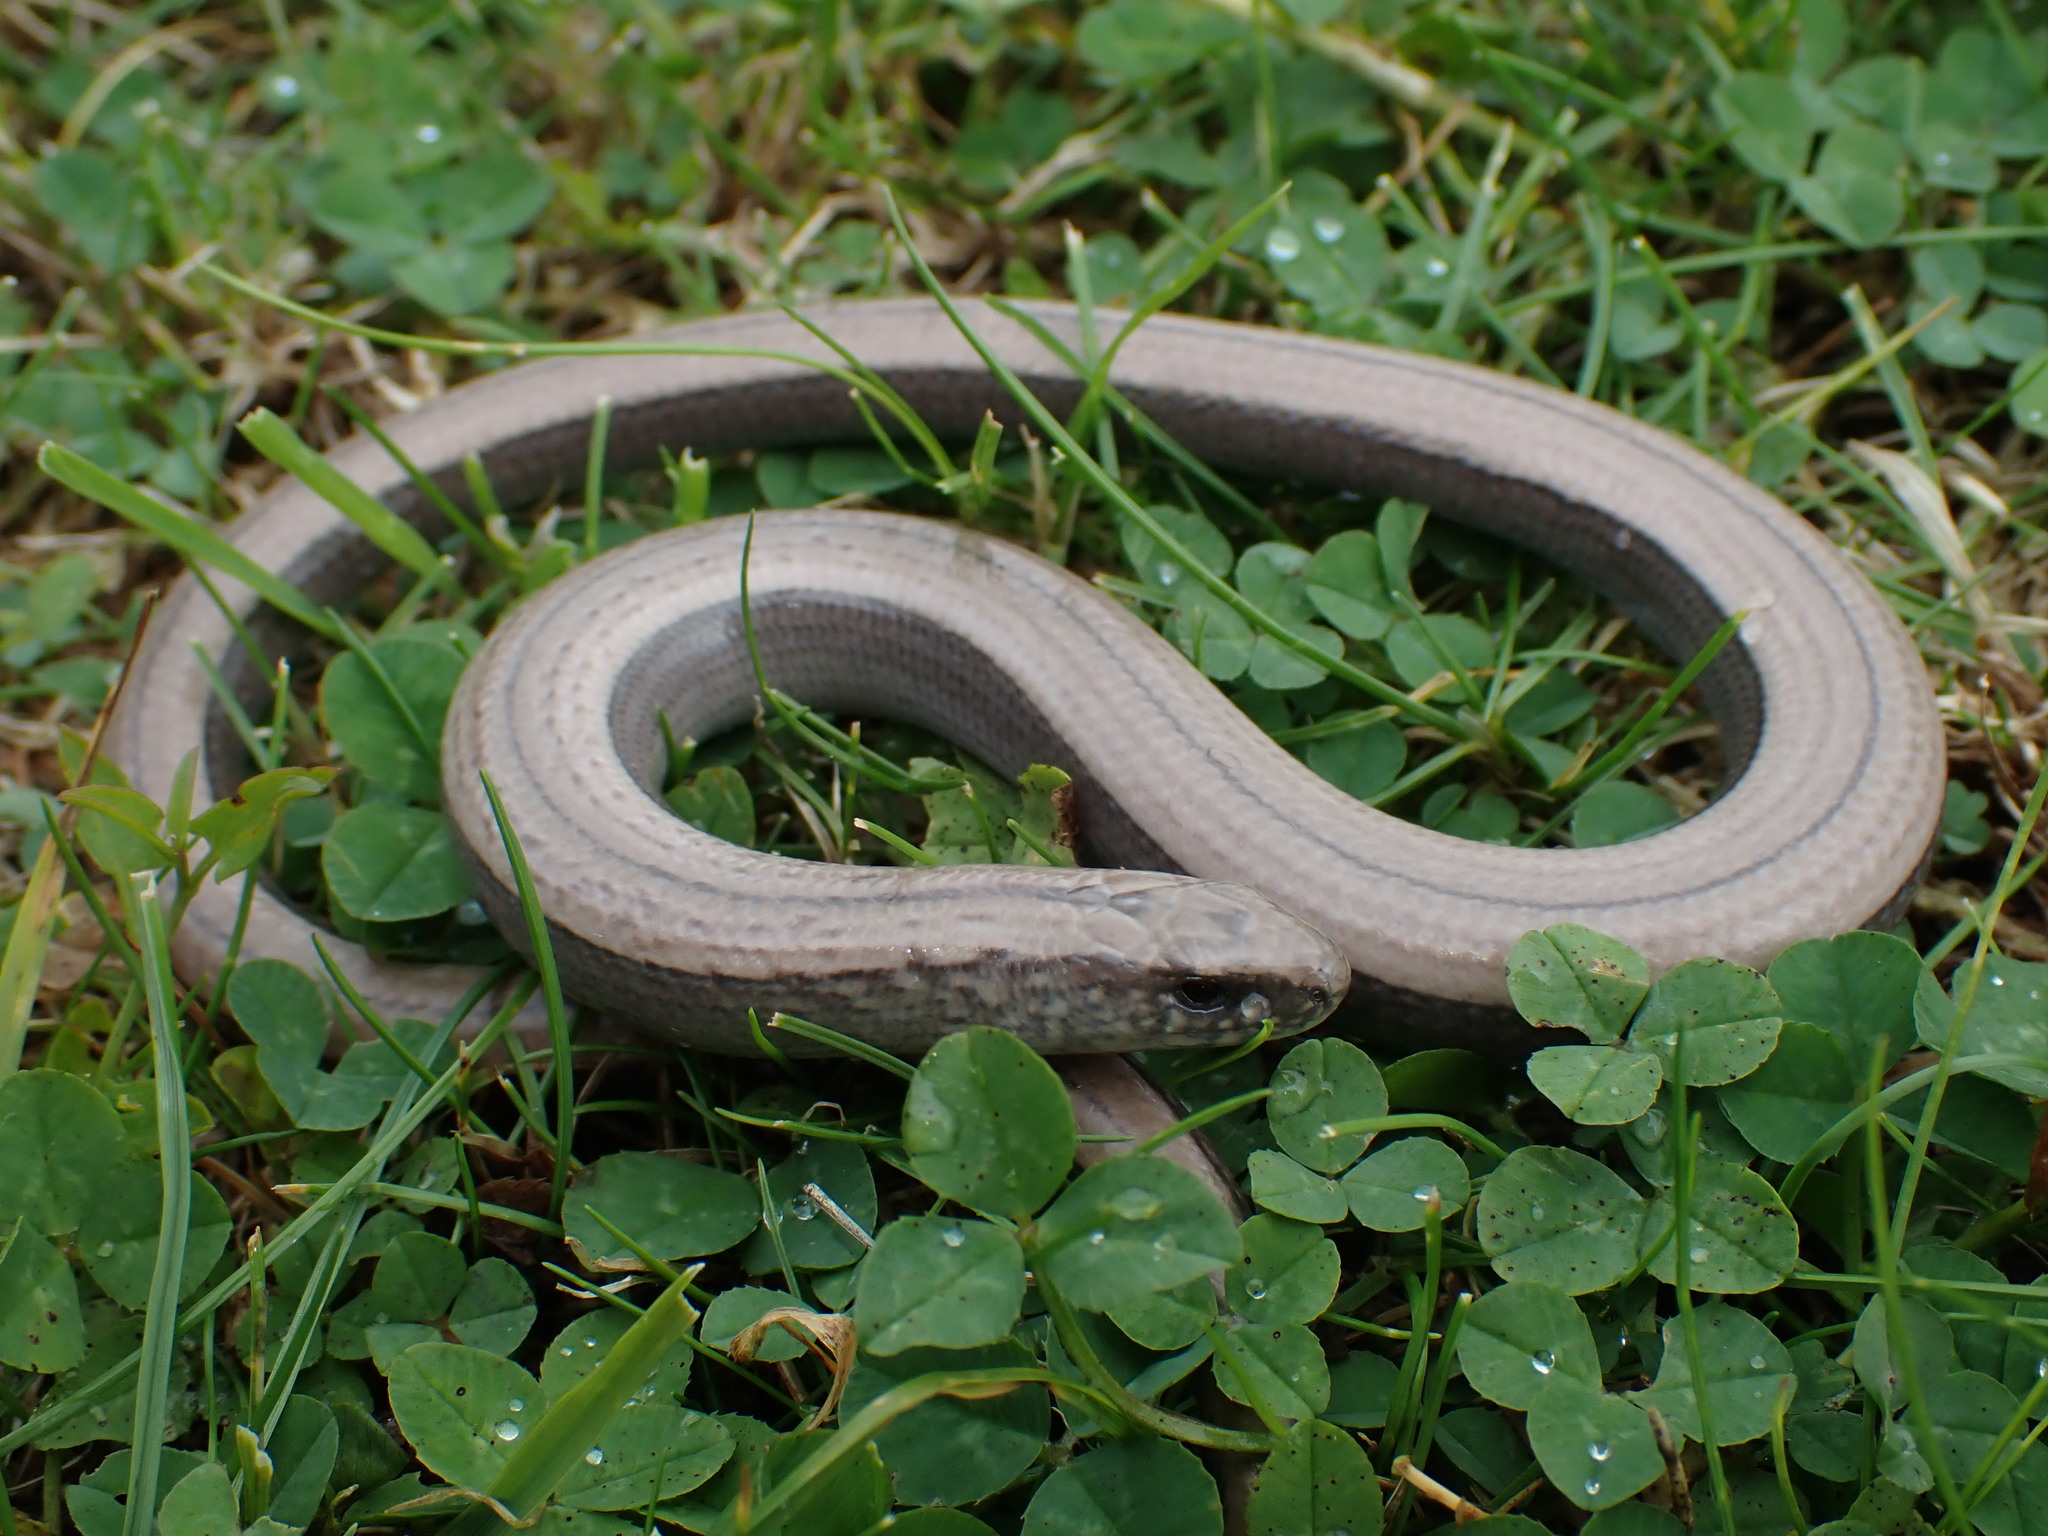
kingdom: Animalia
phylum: Chordata
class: Squamata
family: Anguidae
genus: Anguis
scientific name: Anguis fragilis
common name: Slow worm
